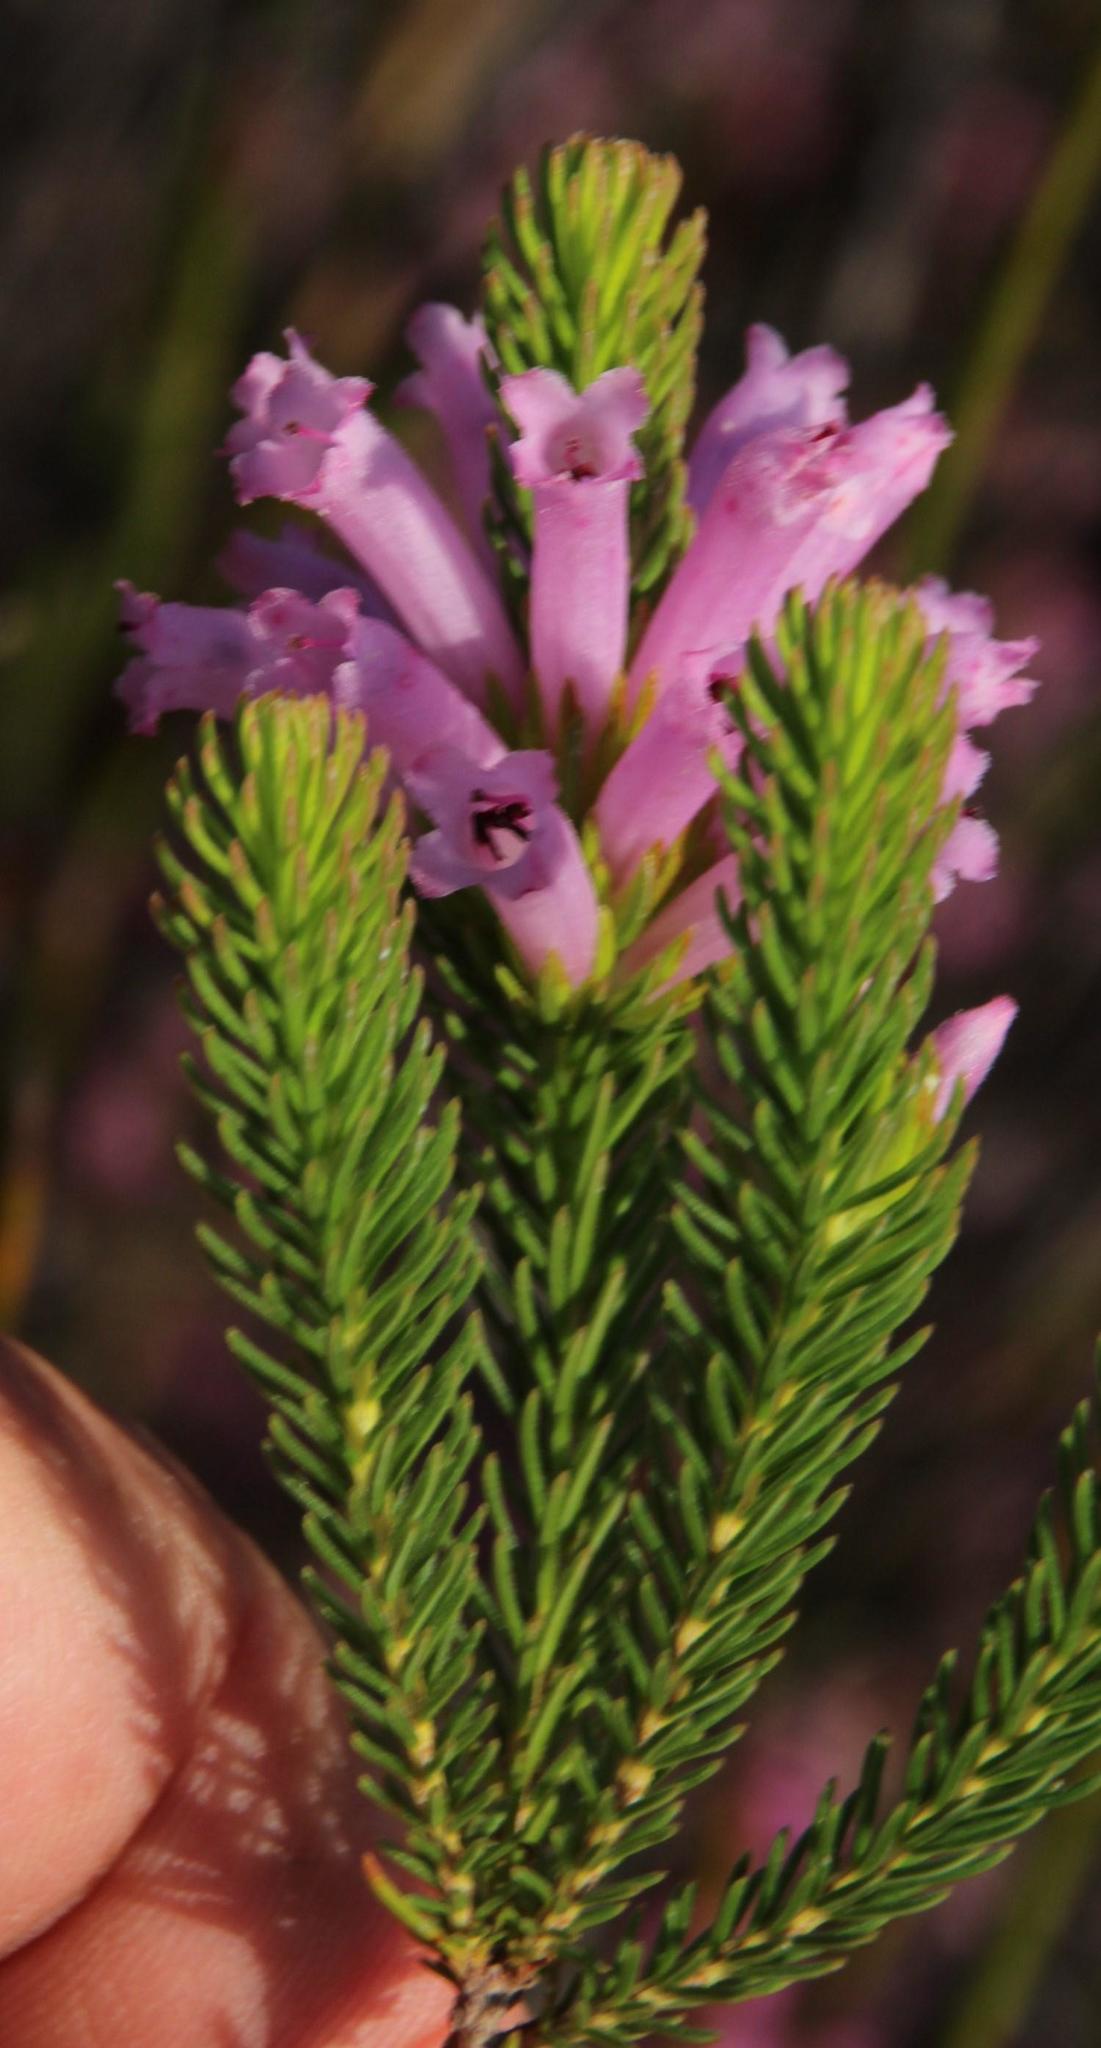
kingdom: Plantae
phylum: Tracheophyta
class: Magnoliopsida
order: Ericales
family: Ericaceae
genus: Erica
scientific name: Erica viscaria
